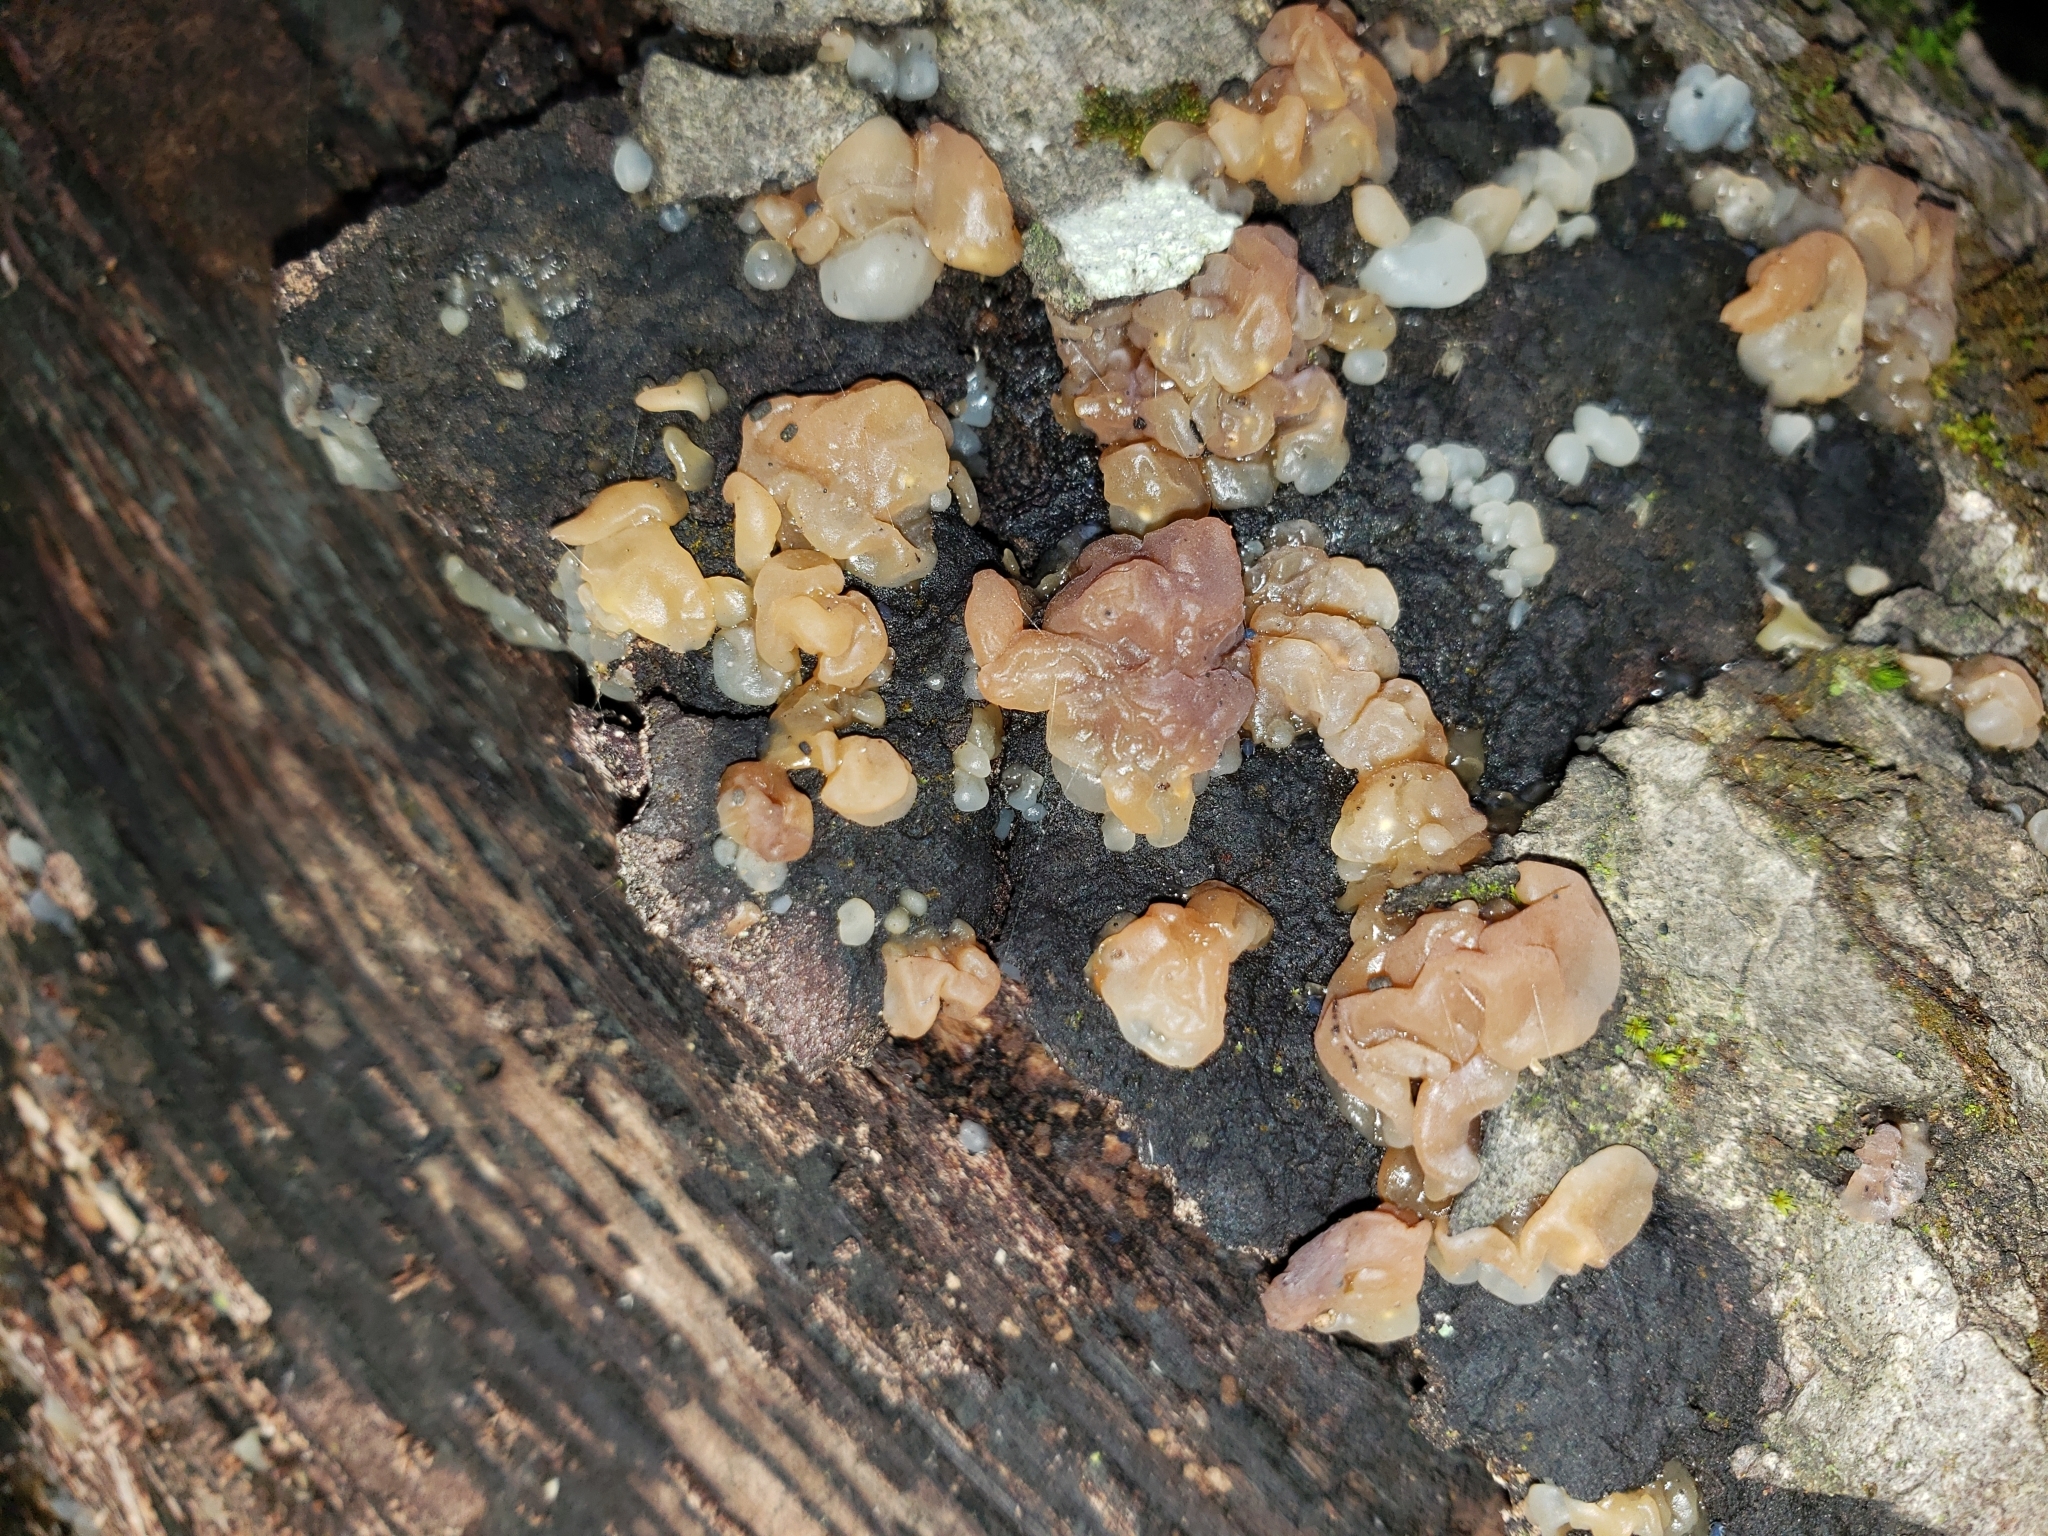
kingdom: Fungi
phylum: Basidiomycota
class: Agaricomycetes
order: Auriculariales
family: Hyaloriaceae
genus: Myxarium
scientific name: Myxarium nucleatum
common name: Crystal brain fungus
